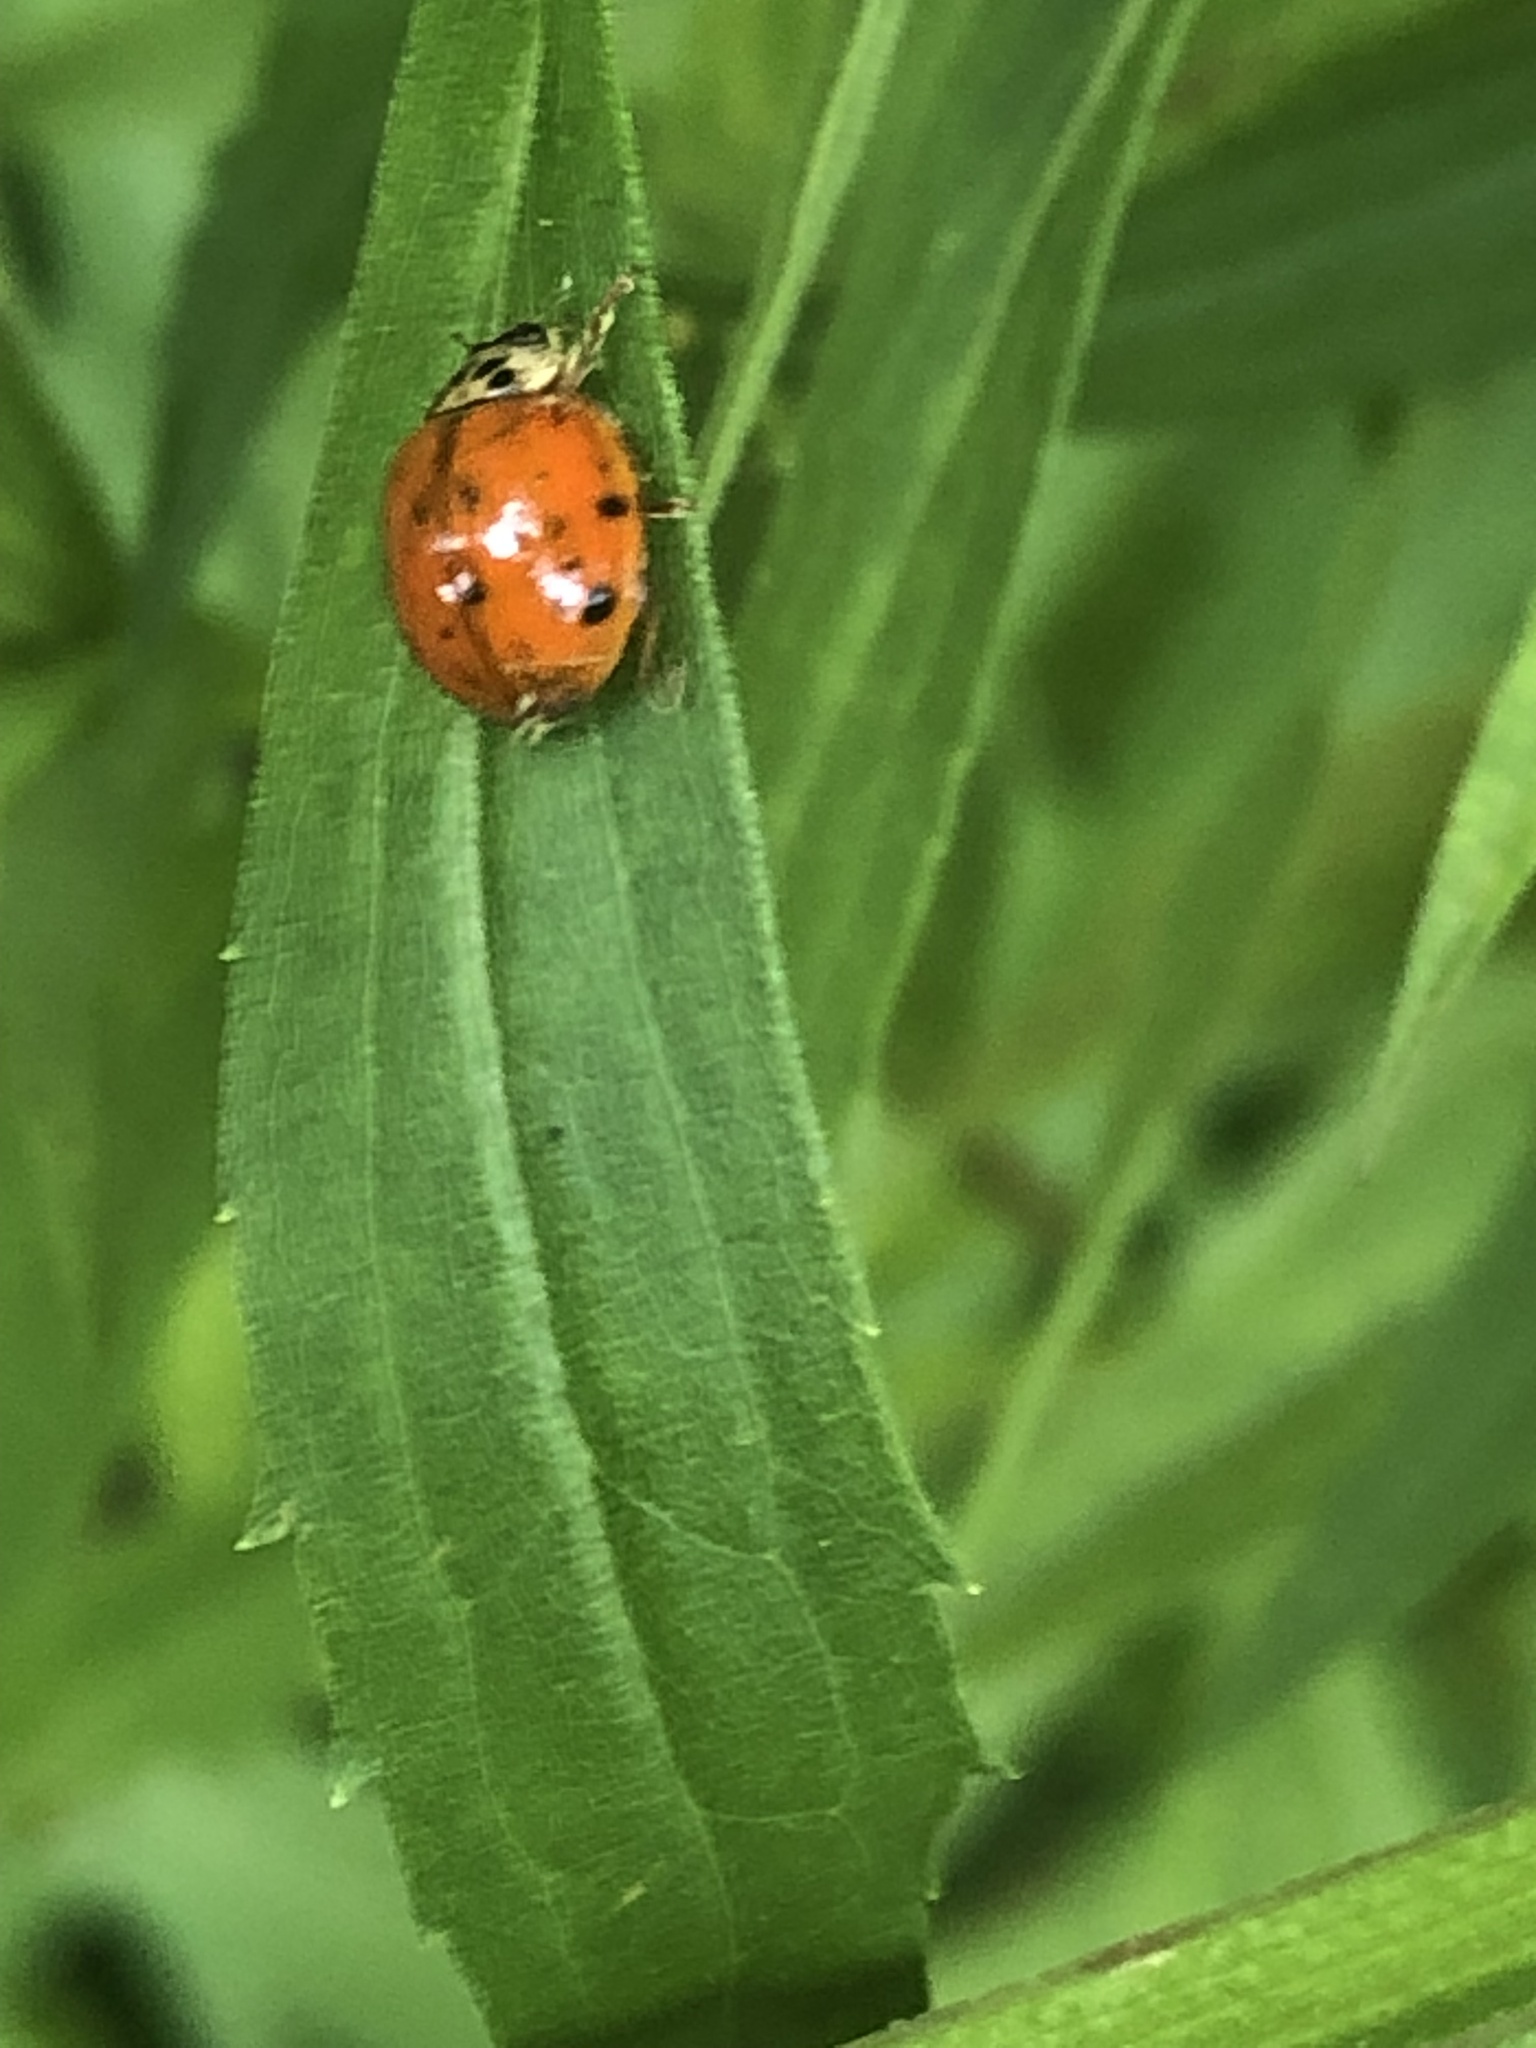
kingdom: Animalia
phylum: Arthropoda
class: Insecta
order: Coleoptera
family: Coccinellidae
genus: Harmonia
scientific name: Harmonia axyridis
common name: Harlequin ladybird
